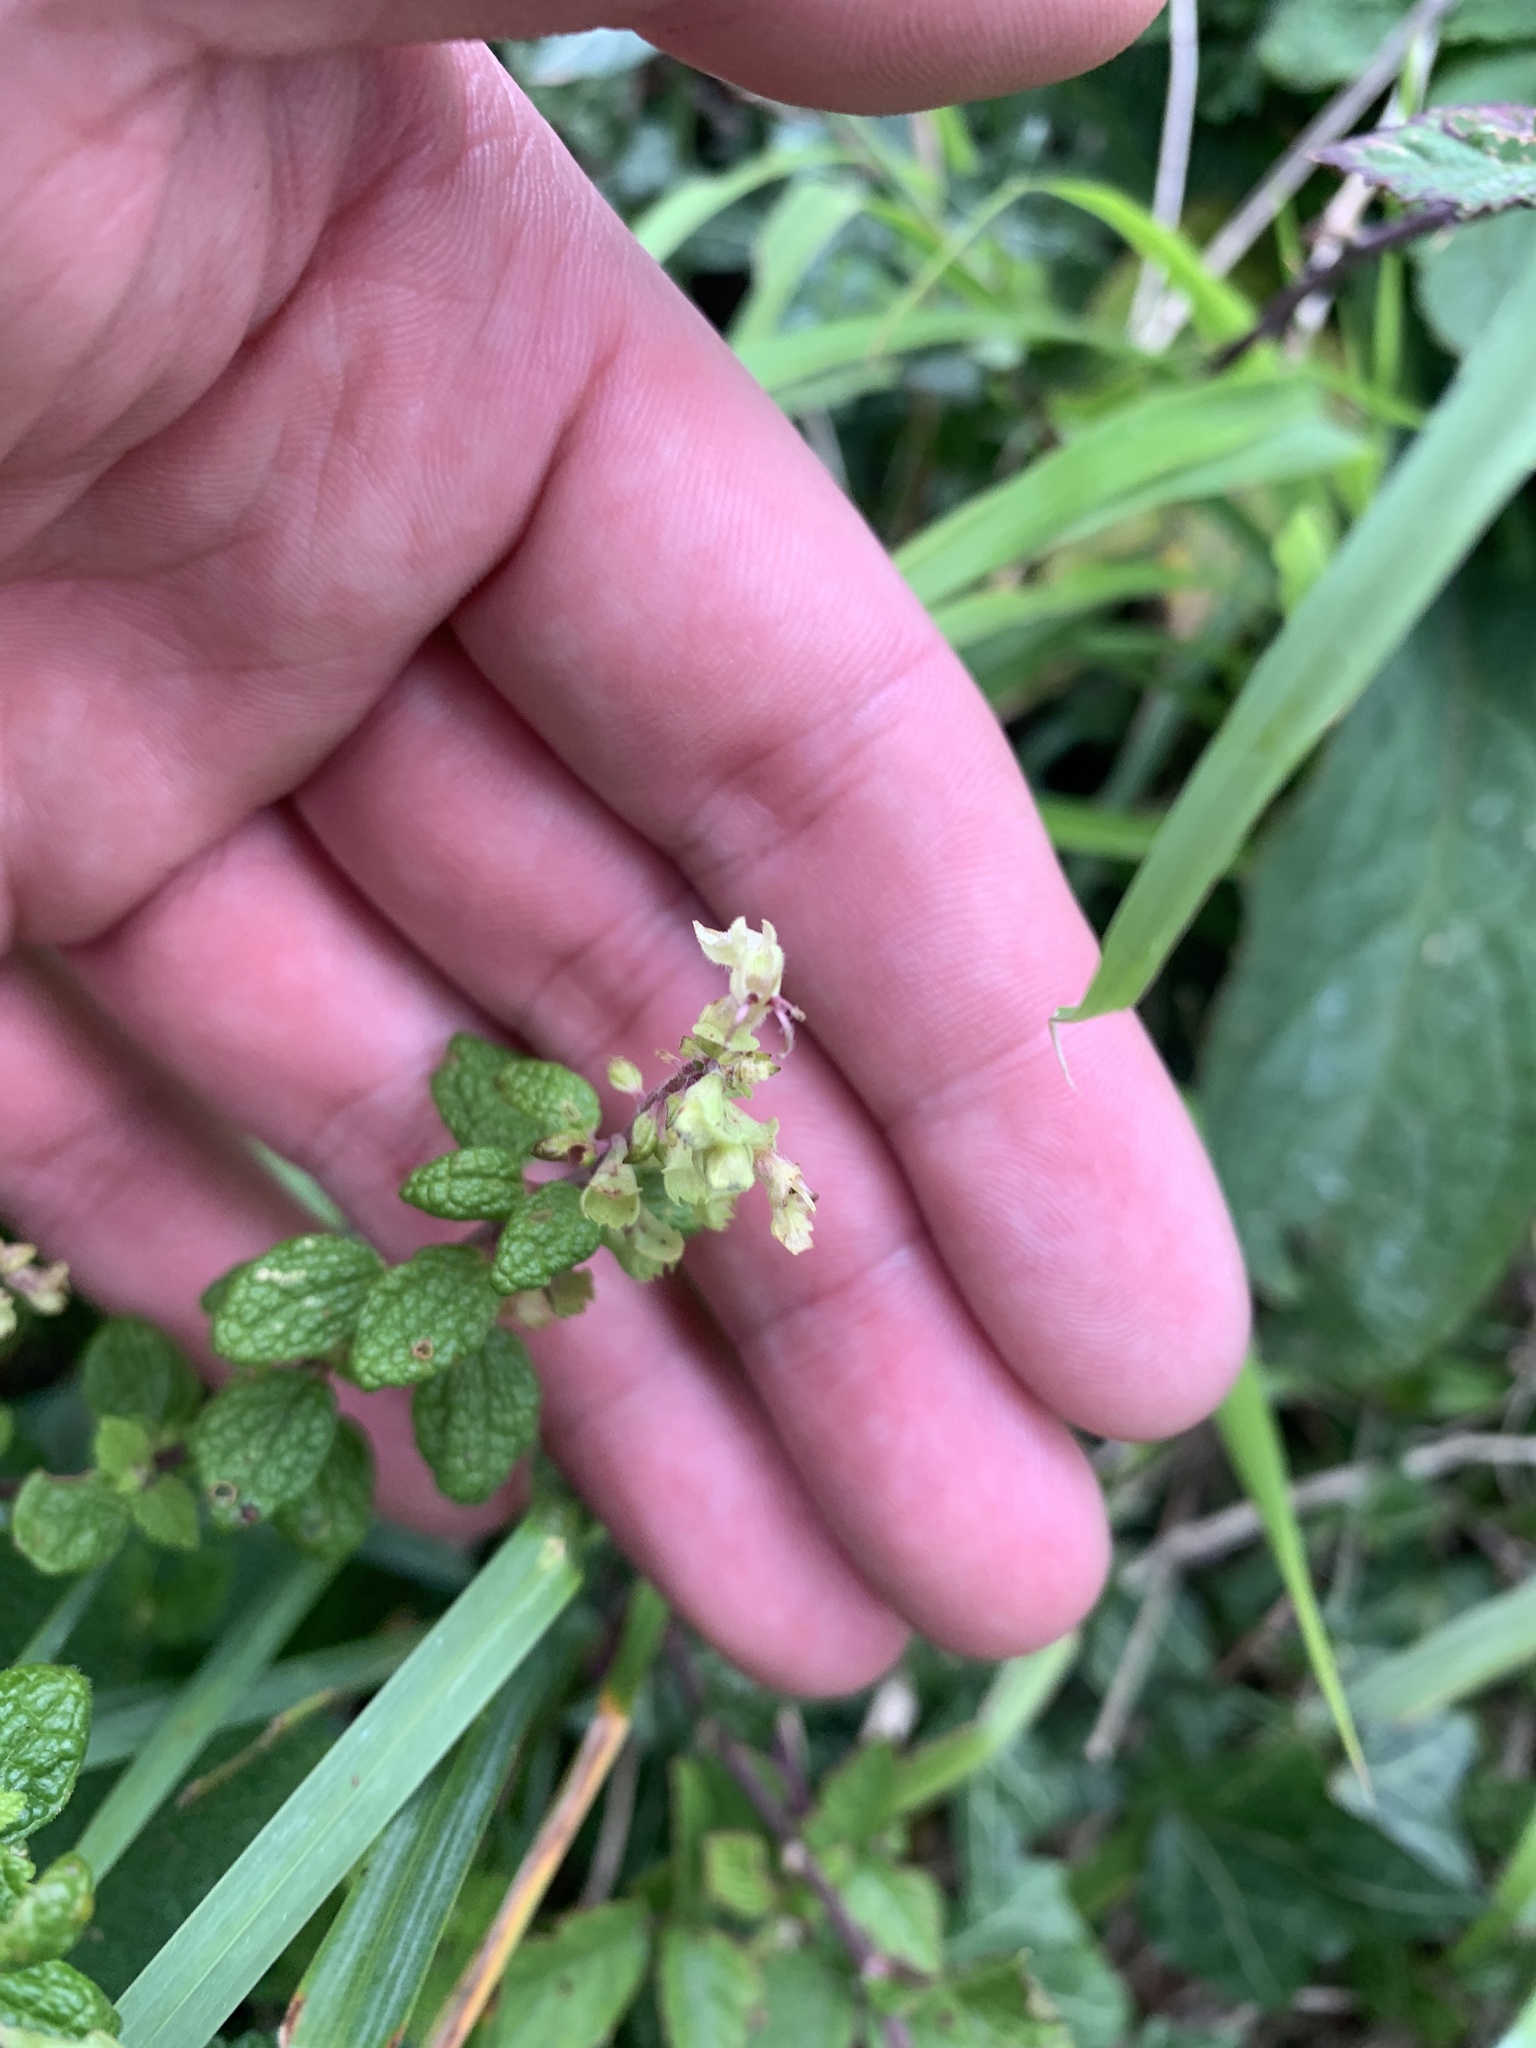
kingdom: Plantae
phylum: Tracheophyta
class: Magnoliopsida
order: Lamiales
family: Lamiaceae
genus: Teucrium
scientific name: Teucrium scorodonia
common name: Woodland germander
